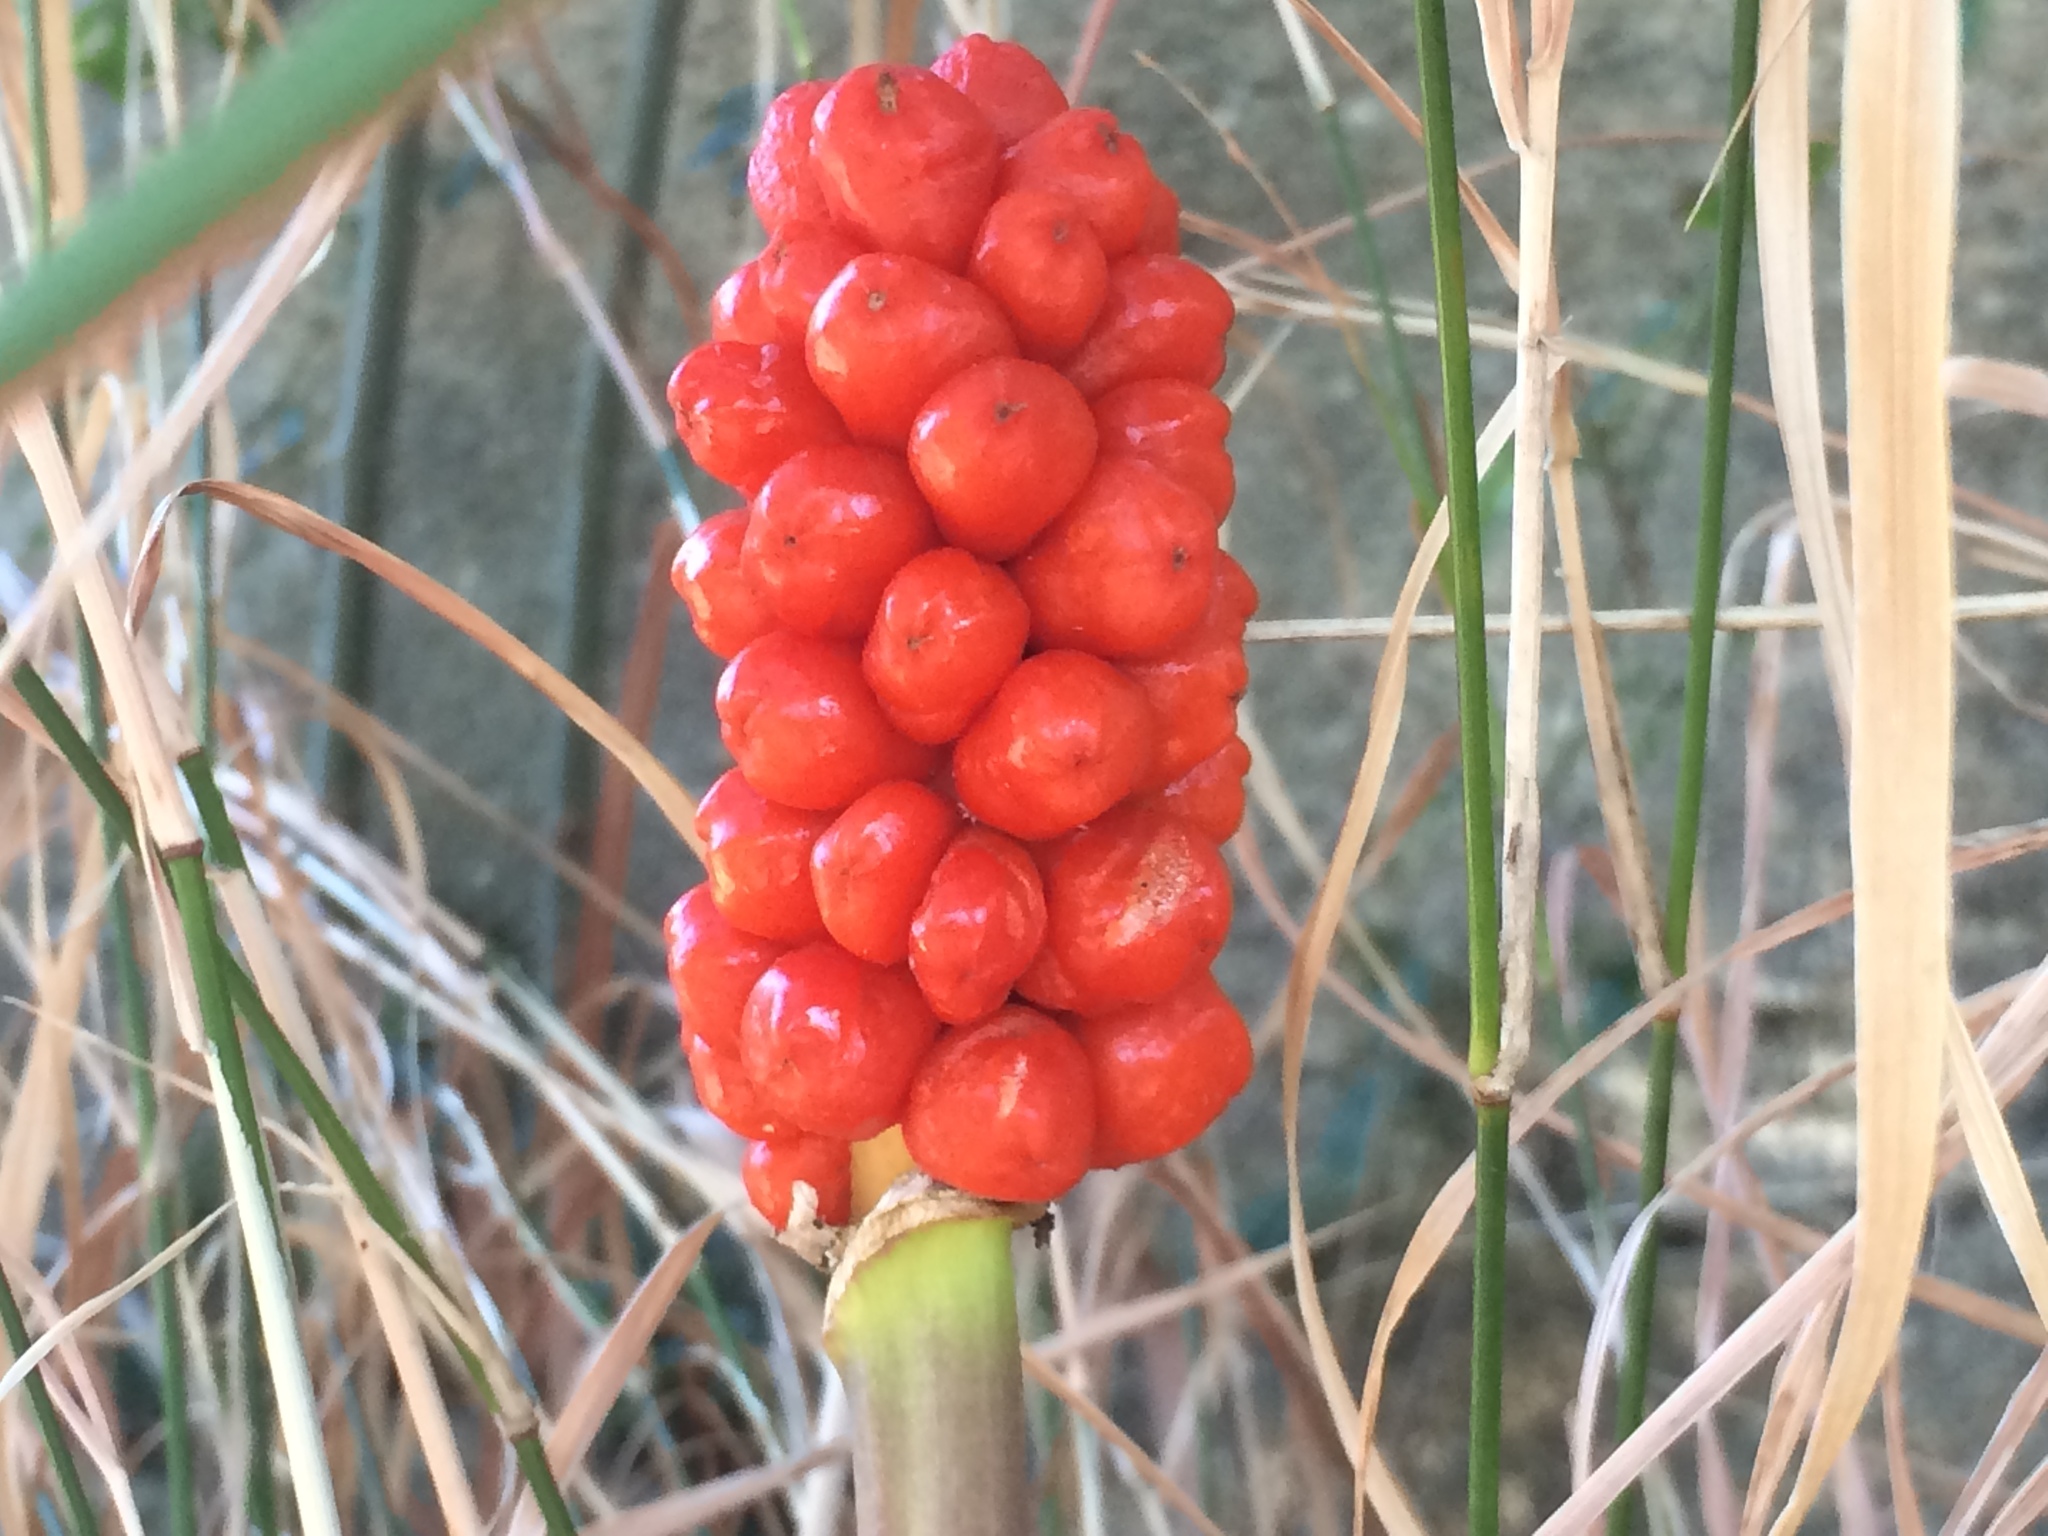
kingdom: Plantae
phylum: Tracheophyta
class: Liliopsida
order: Alismatales
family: Araceae
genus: Arum
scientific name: Arum italicum
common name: Italian lords-and-ladies
